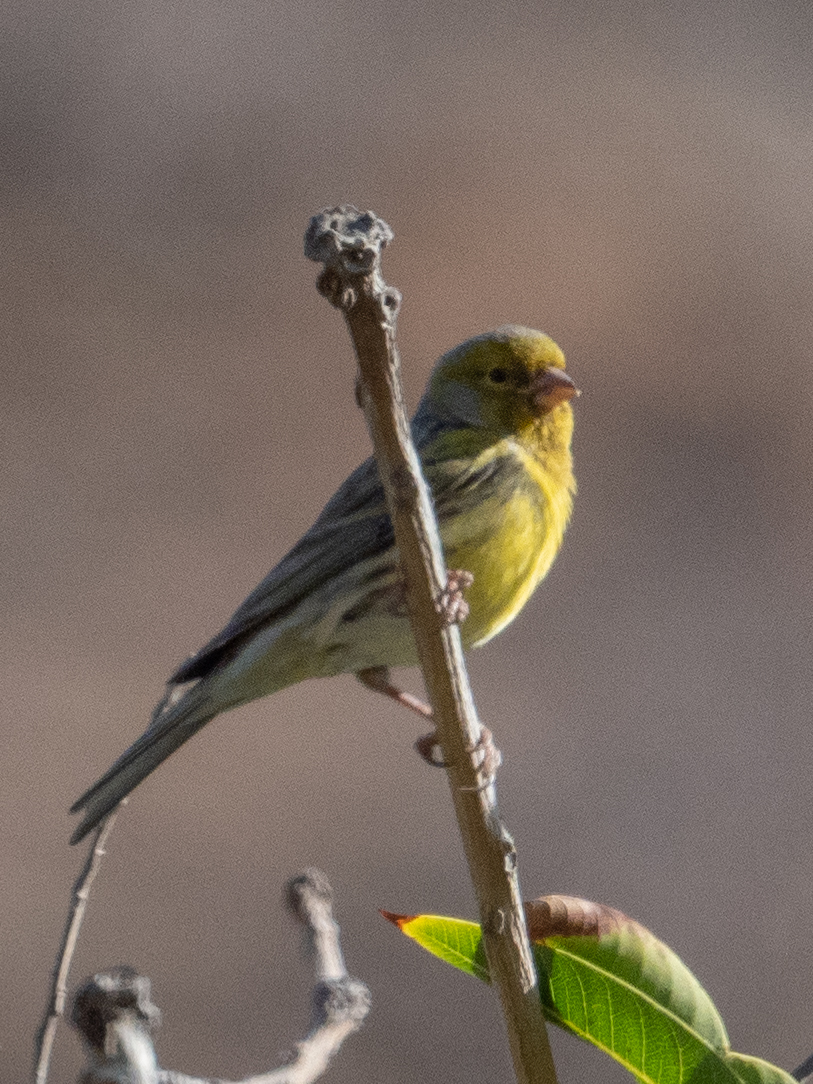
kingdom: Animalia
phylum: Chordata
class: Aves
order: Passeriformes
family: Fringillidae
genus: Serinus
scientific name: Serinus canaria
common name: Atlantic canary
